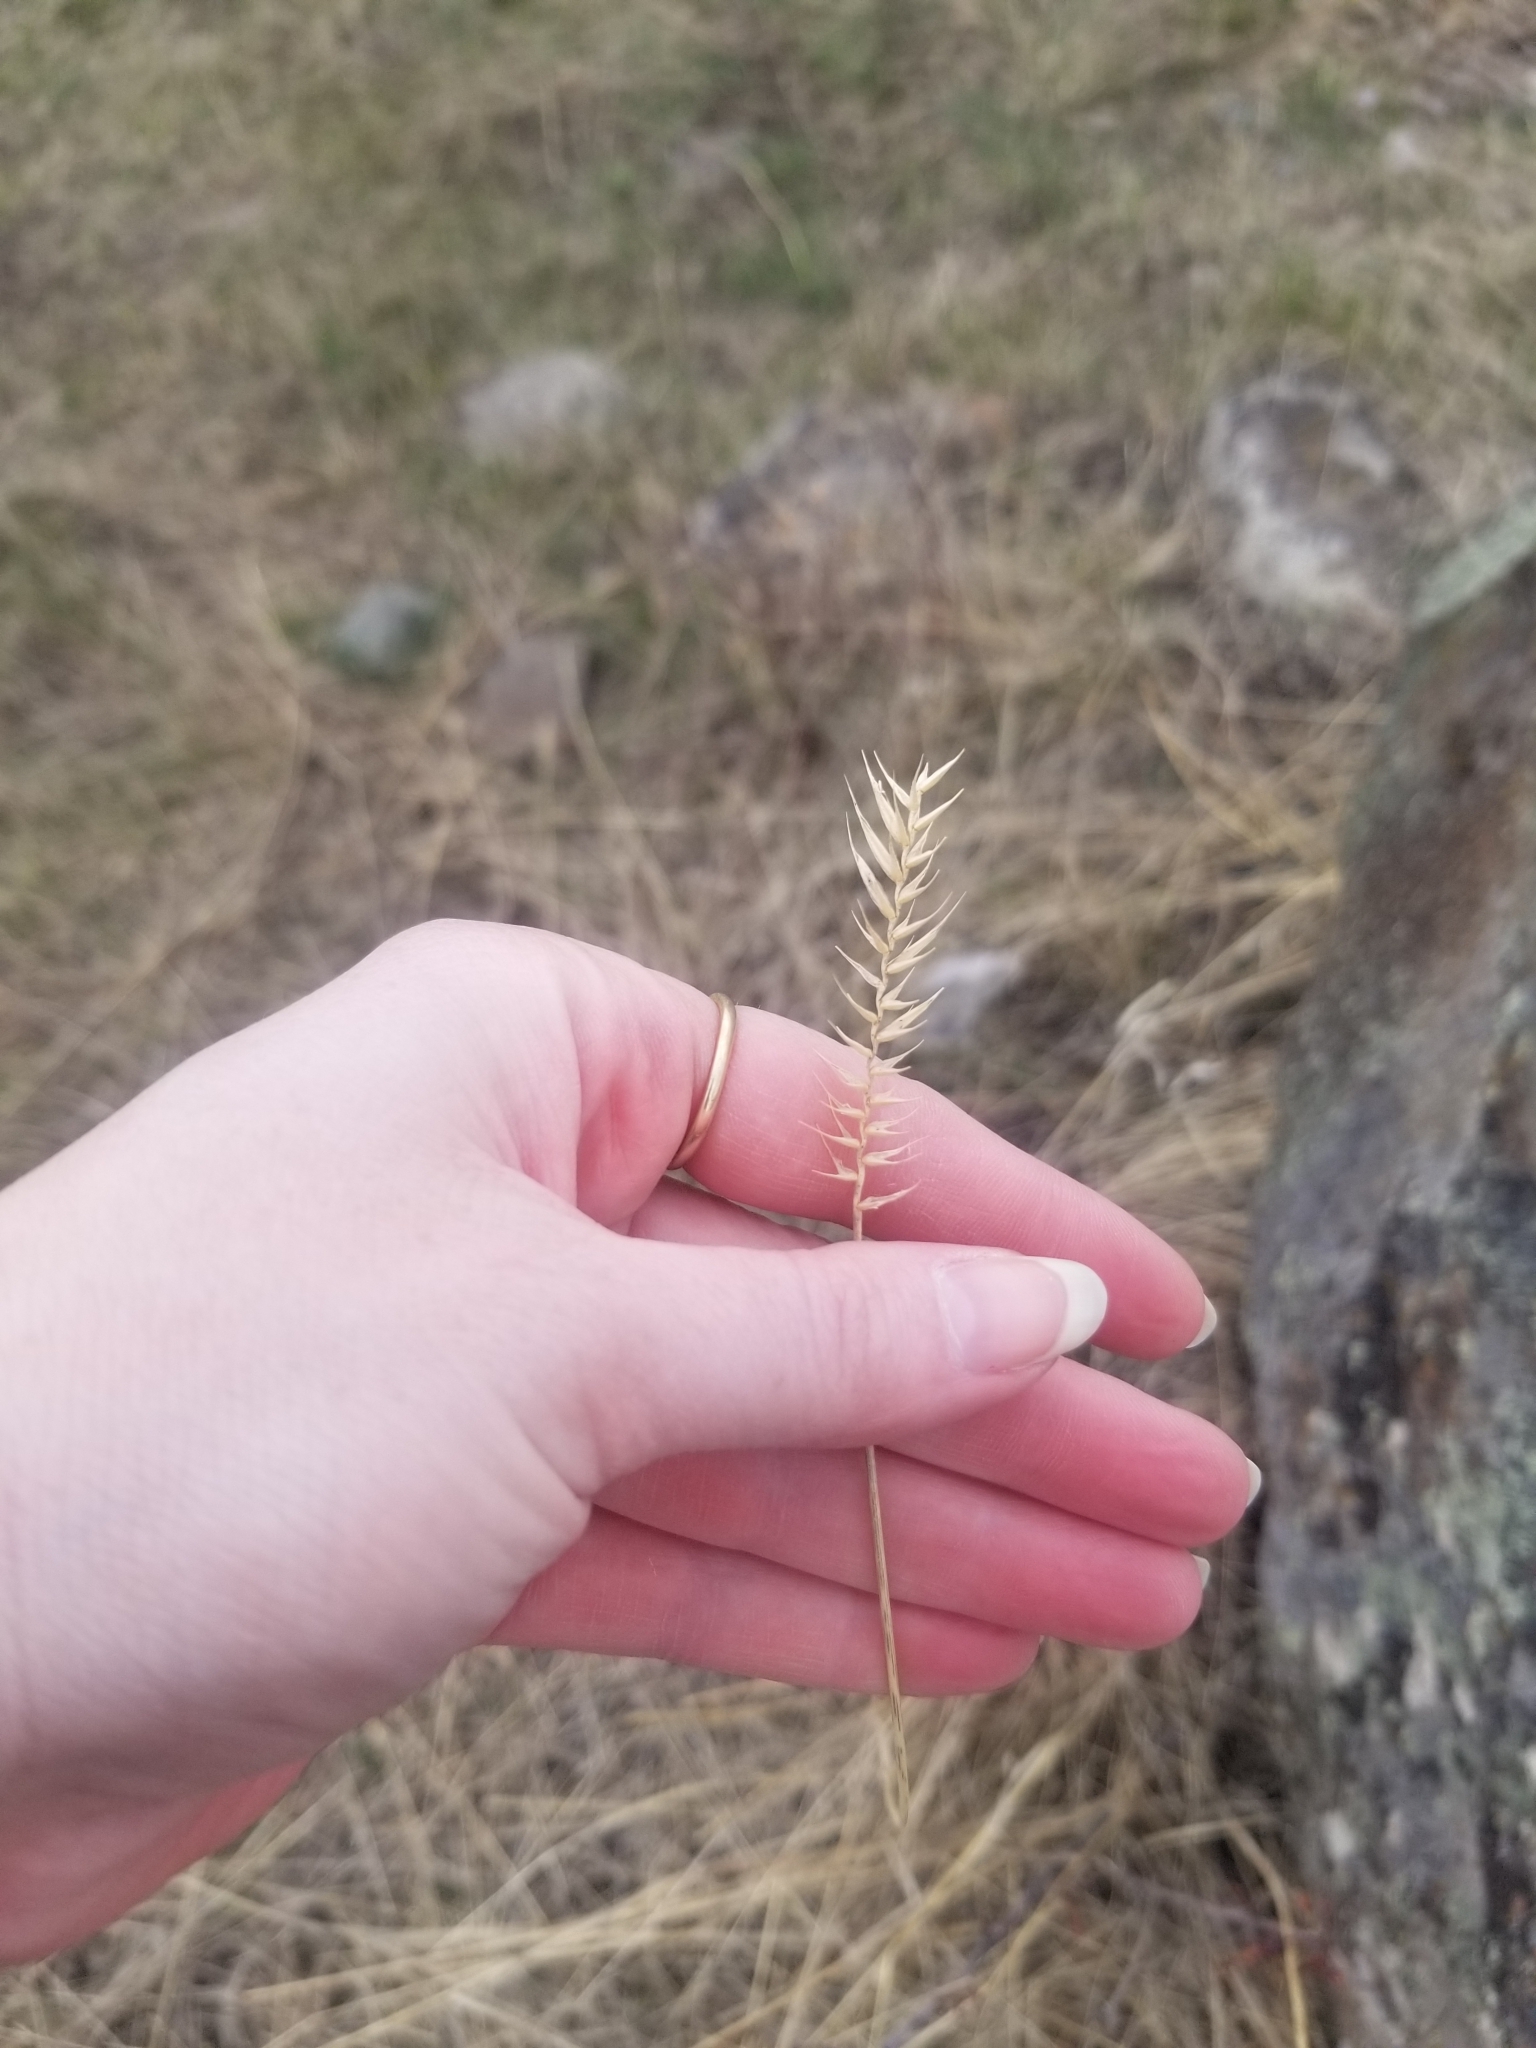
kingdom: Plantae
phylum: Tracheophyta
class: Liliopsida
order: Poales
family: Poaceae
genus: Agropyron
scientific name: Agropyron cristatum
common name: Crested wheatgrass
